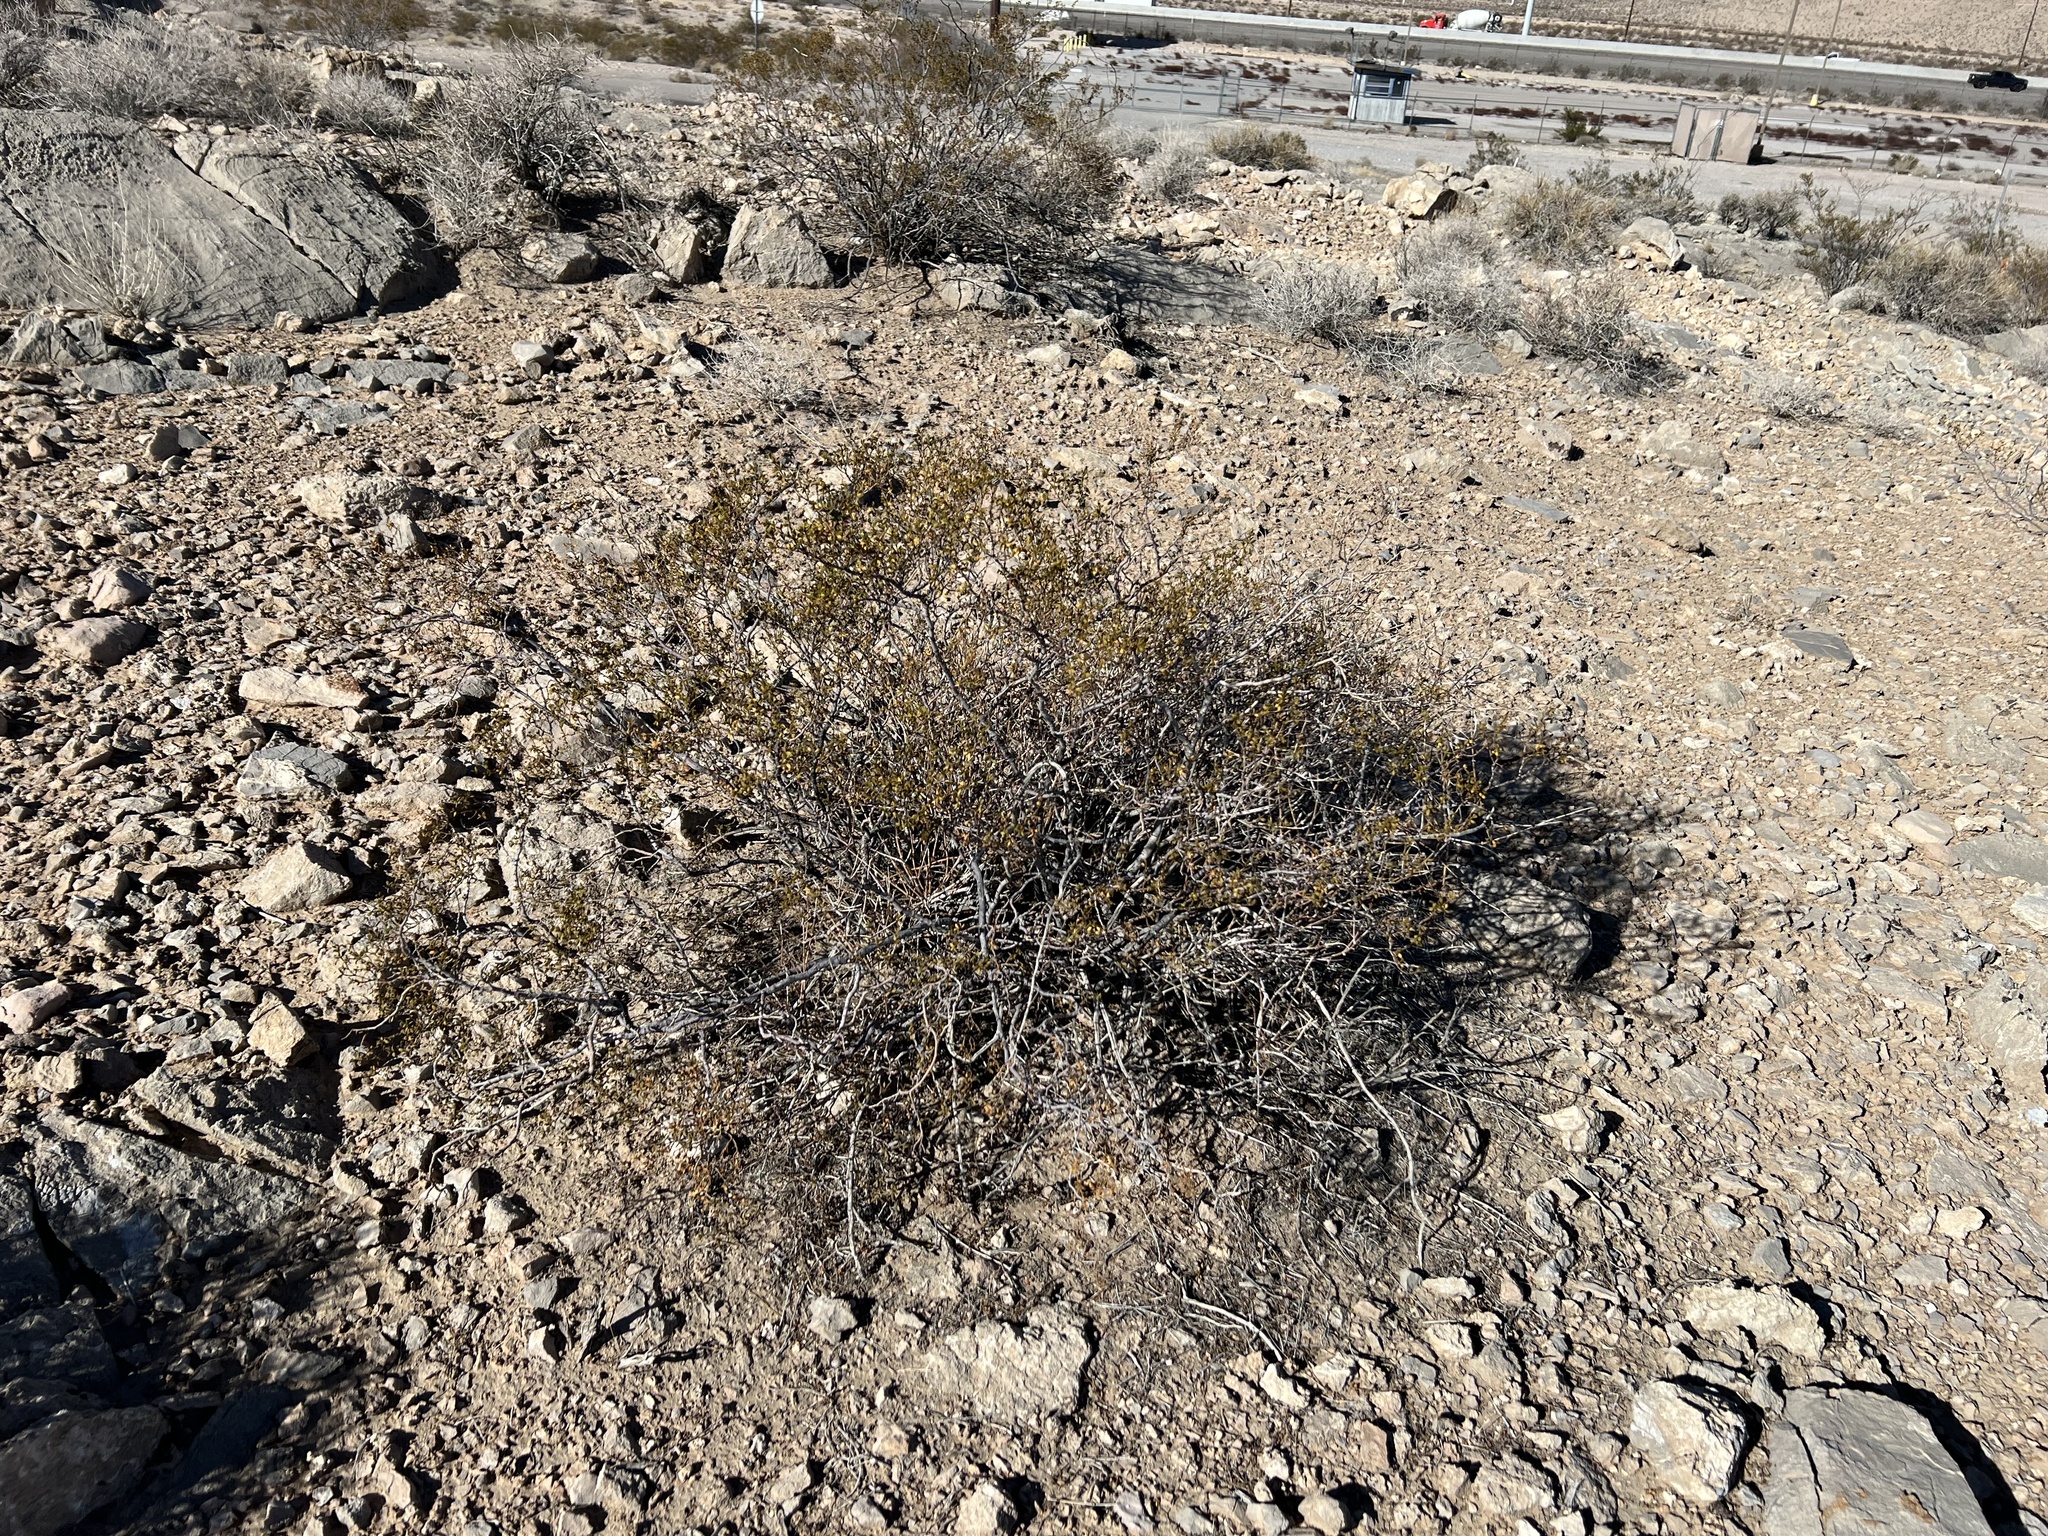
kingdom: Plantae
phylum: Tracheophyta
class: Magnoliopsida
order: Zygophyllales
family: Zygophyllaceae
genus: Larrea
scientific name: Larrea tridentata
